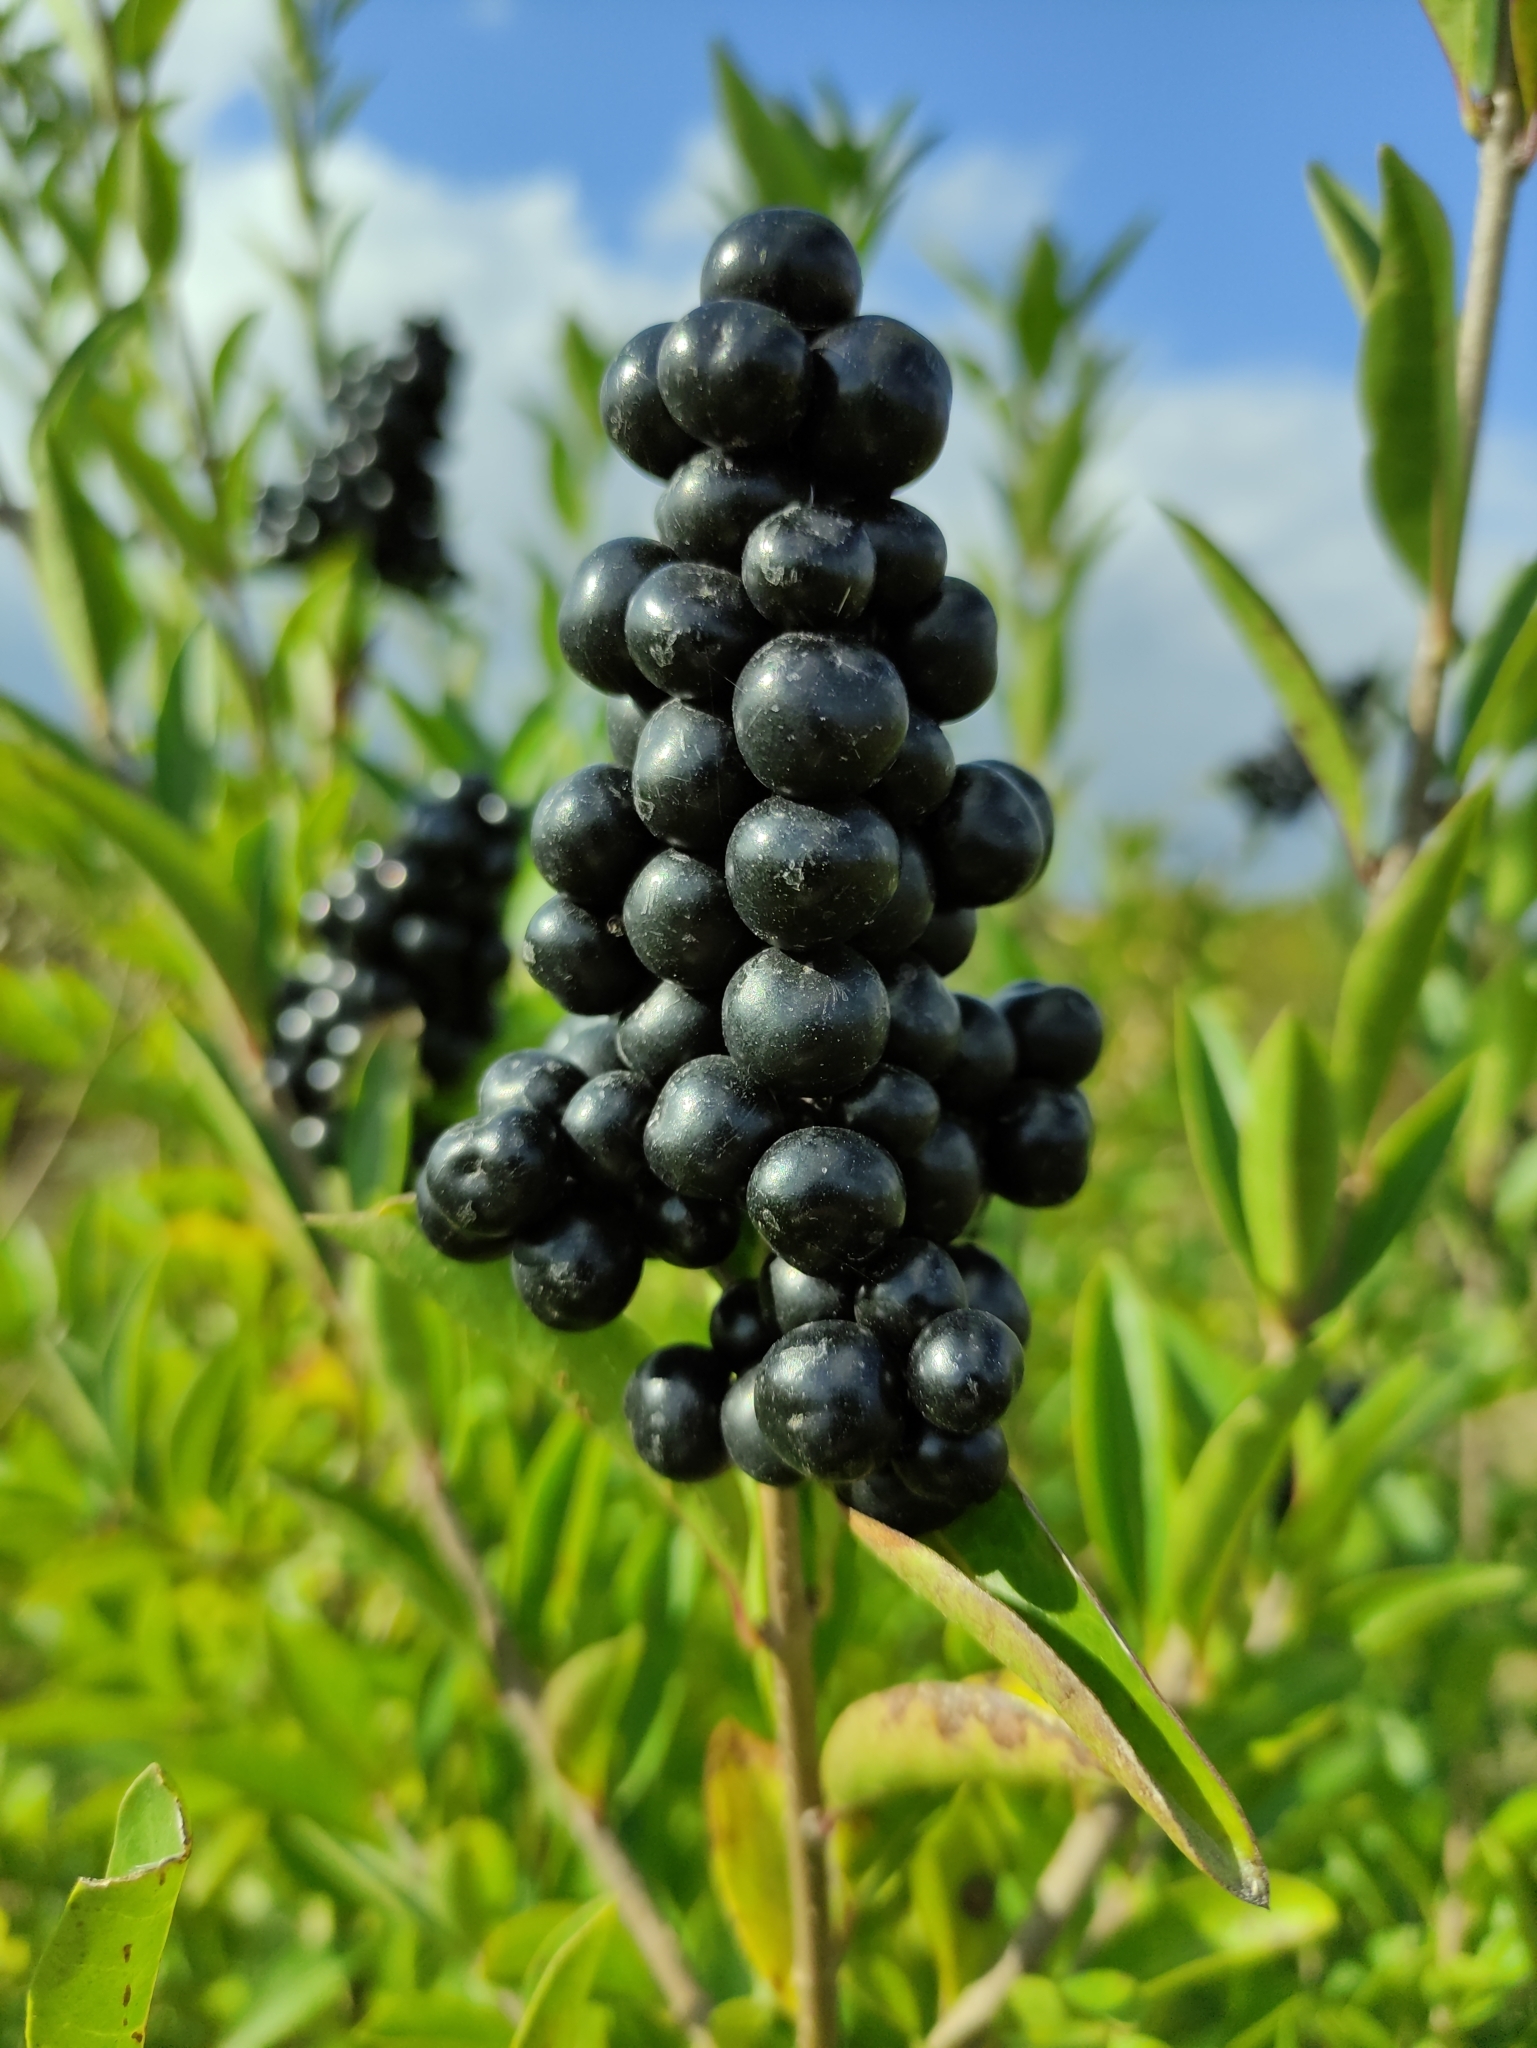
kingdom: Plantae
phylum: Tracheophyta
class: Magnoliopsida
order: Lamiales
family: Oleaceae
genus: Ligustrum
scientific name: Ligustrum vulgare
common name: Wild privet
